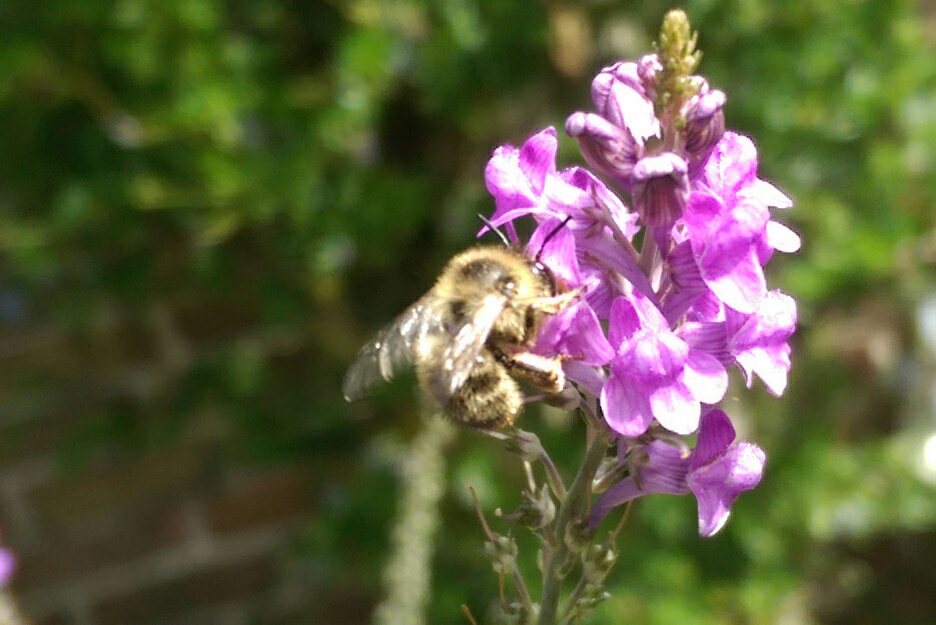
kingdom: Animalia
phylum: Arthropoda
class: Insecta
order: Hymenoptera
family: Apidae
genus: Anthophora
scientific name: Anthophora furcata
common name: Fork-tailed flower bee
